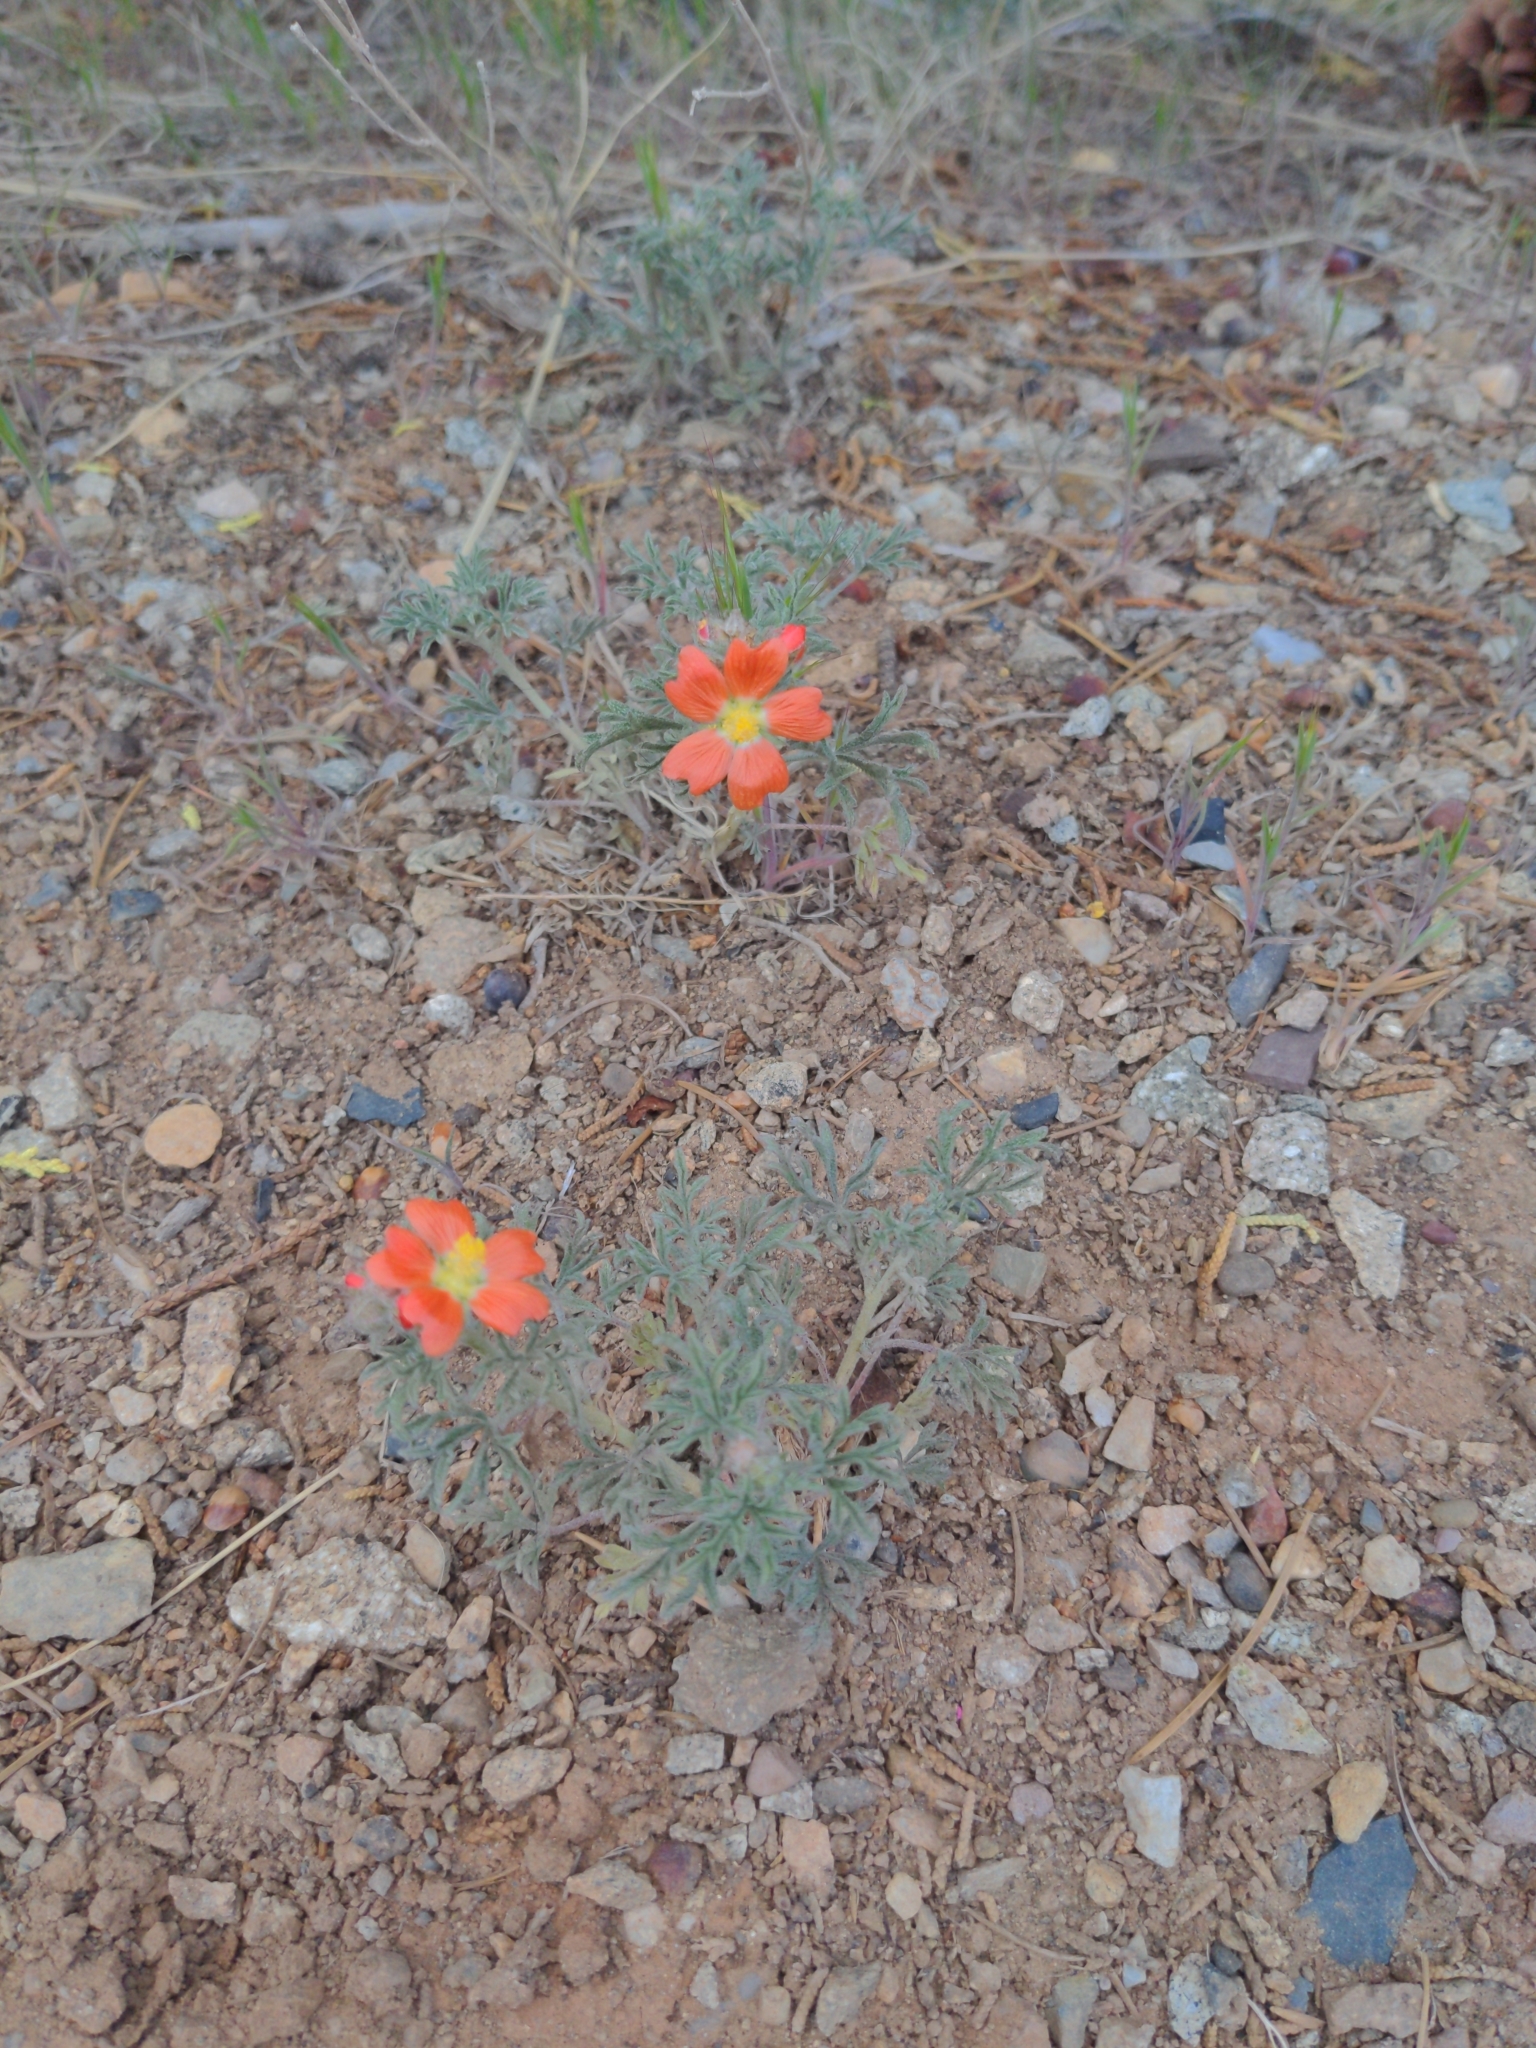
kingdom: Plantae
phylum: Tracheophyta
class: Magnoliopsida
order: Malvales
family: Malvaceae
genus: Sphaeralcea
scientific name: Sphaeralcea coccinea
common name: Moss-rose
